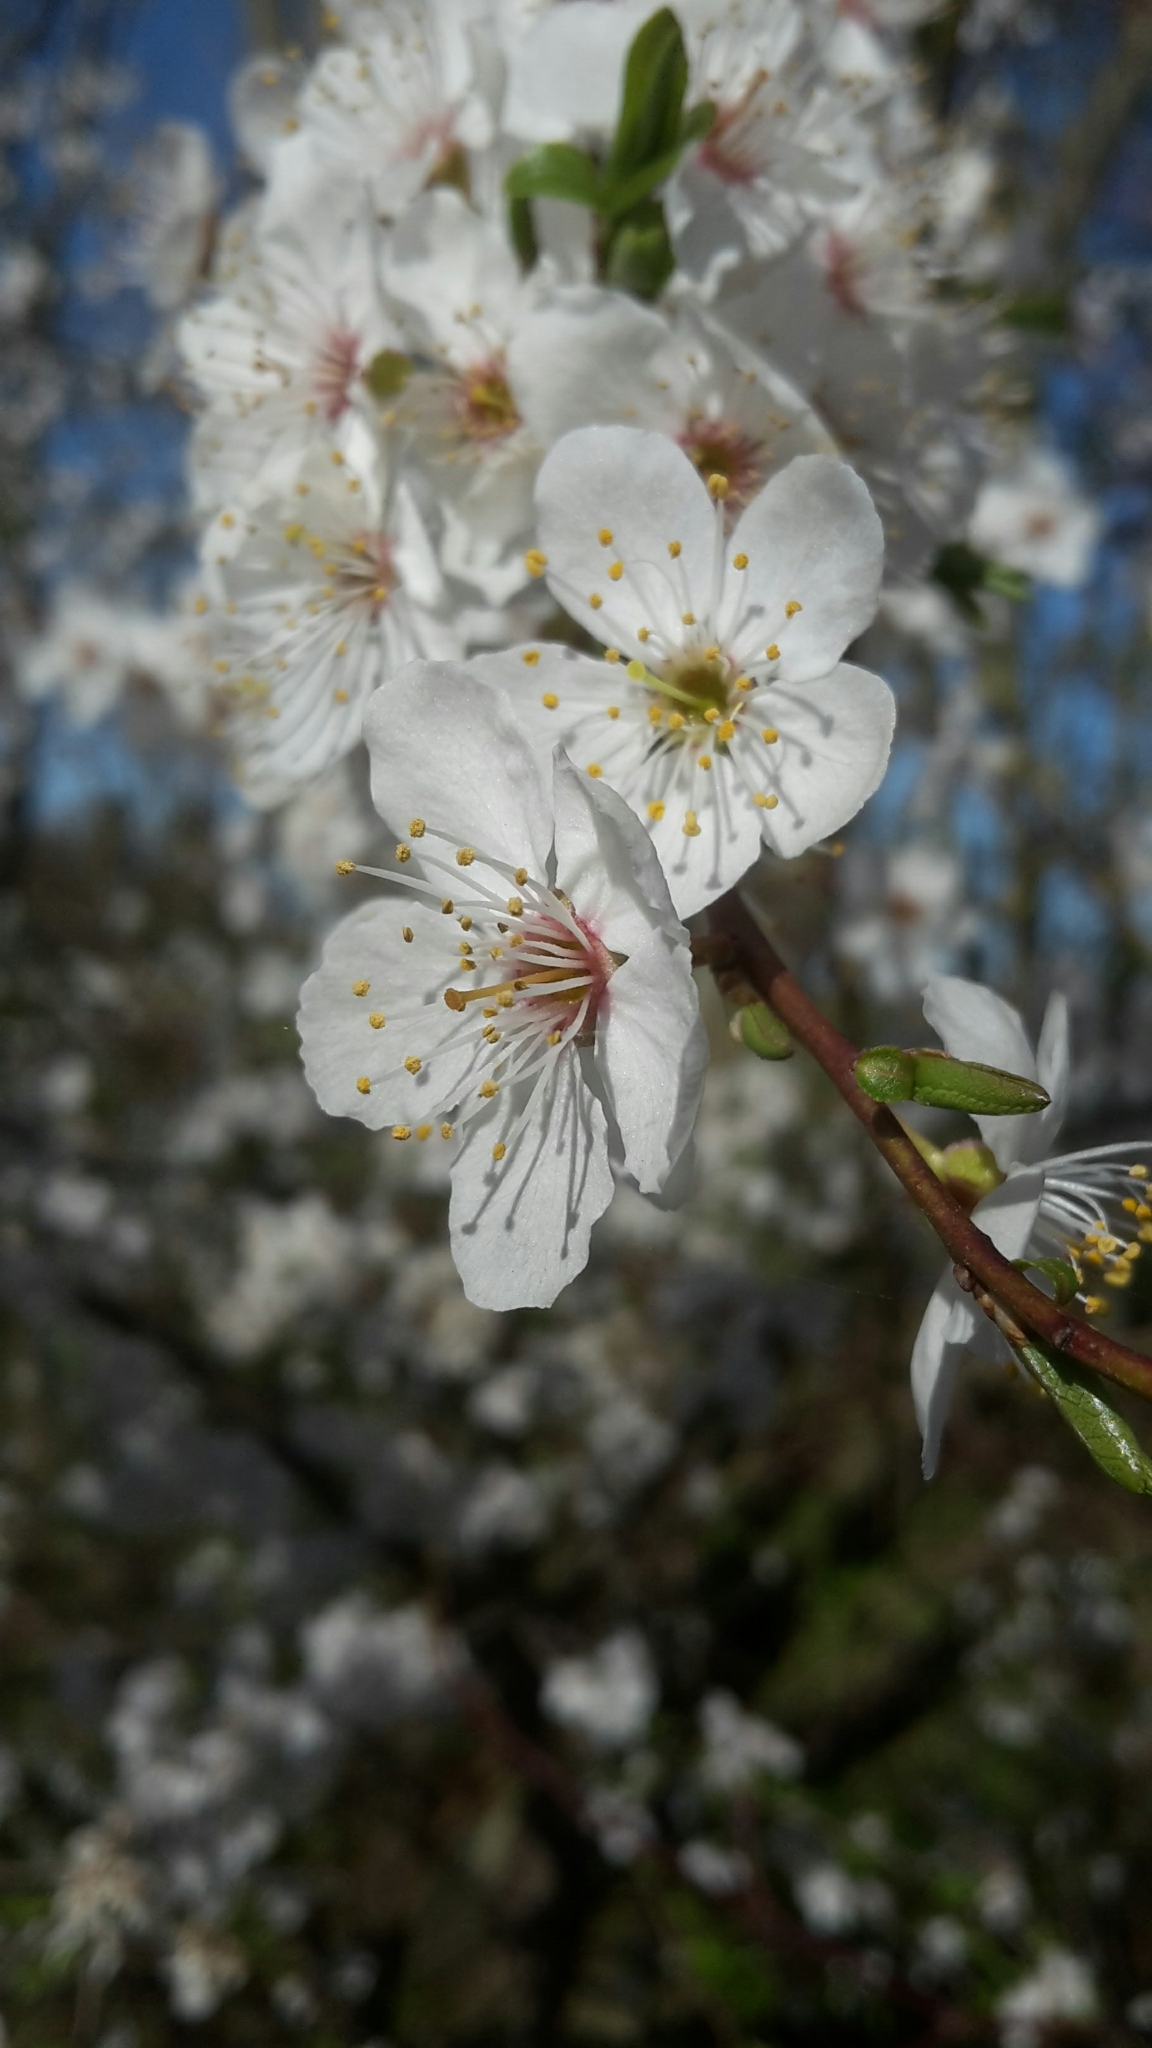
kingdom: Plantae
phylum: Tracheophyta
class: Magnoliopsida
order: Rosales
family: Rosaceae
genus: Prunus
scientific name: Prunus cerasifera
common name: Cherry plum
